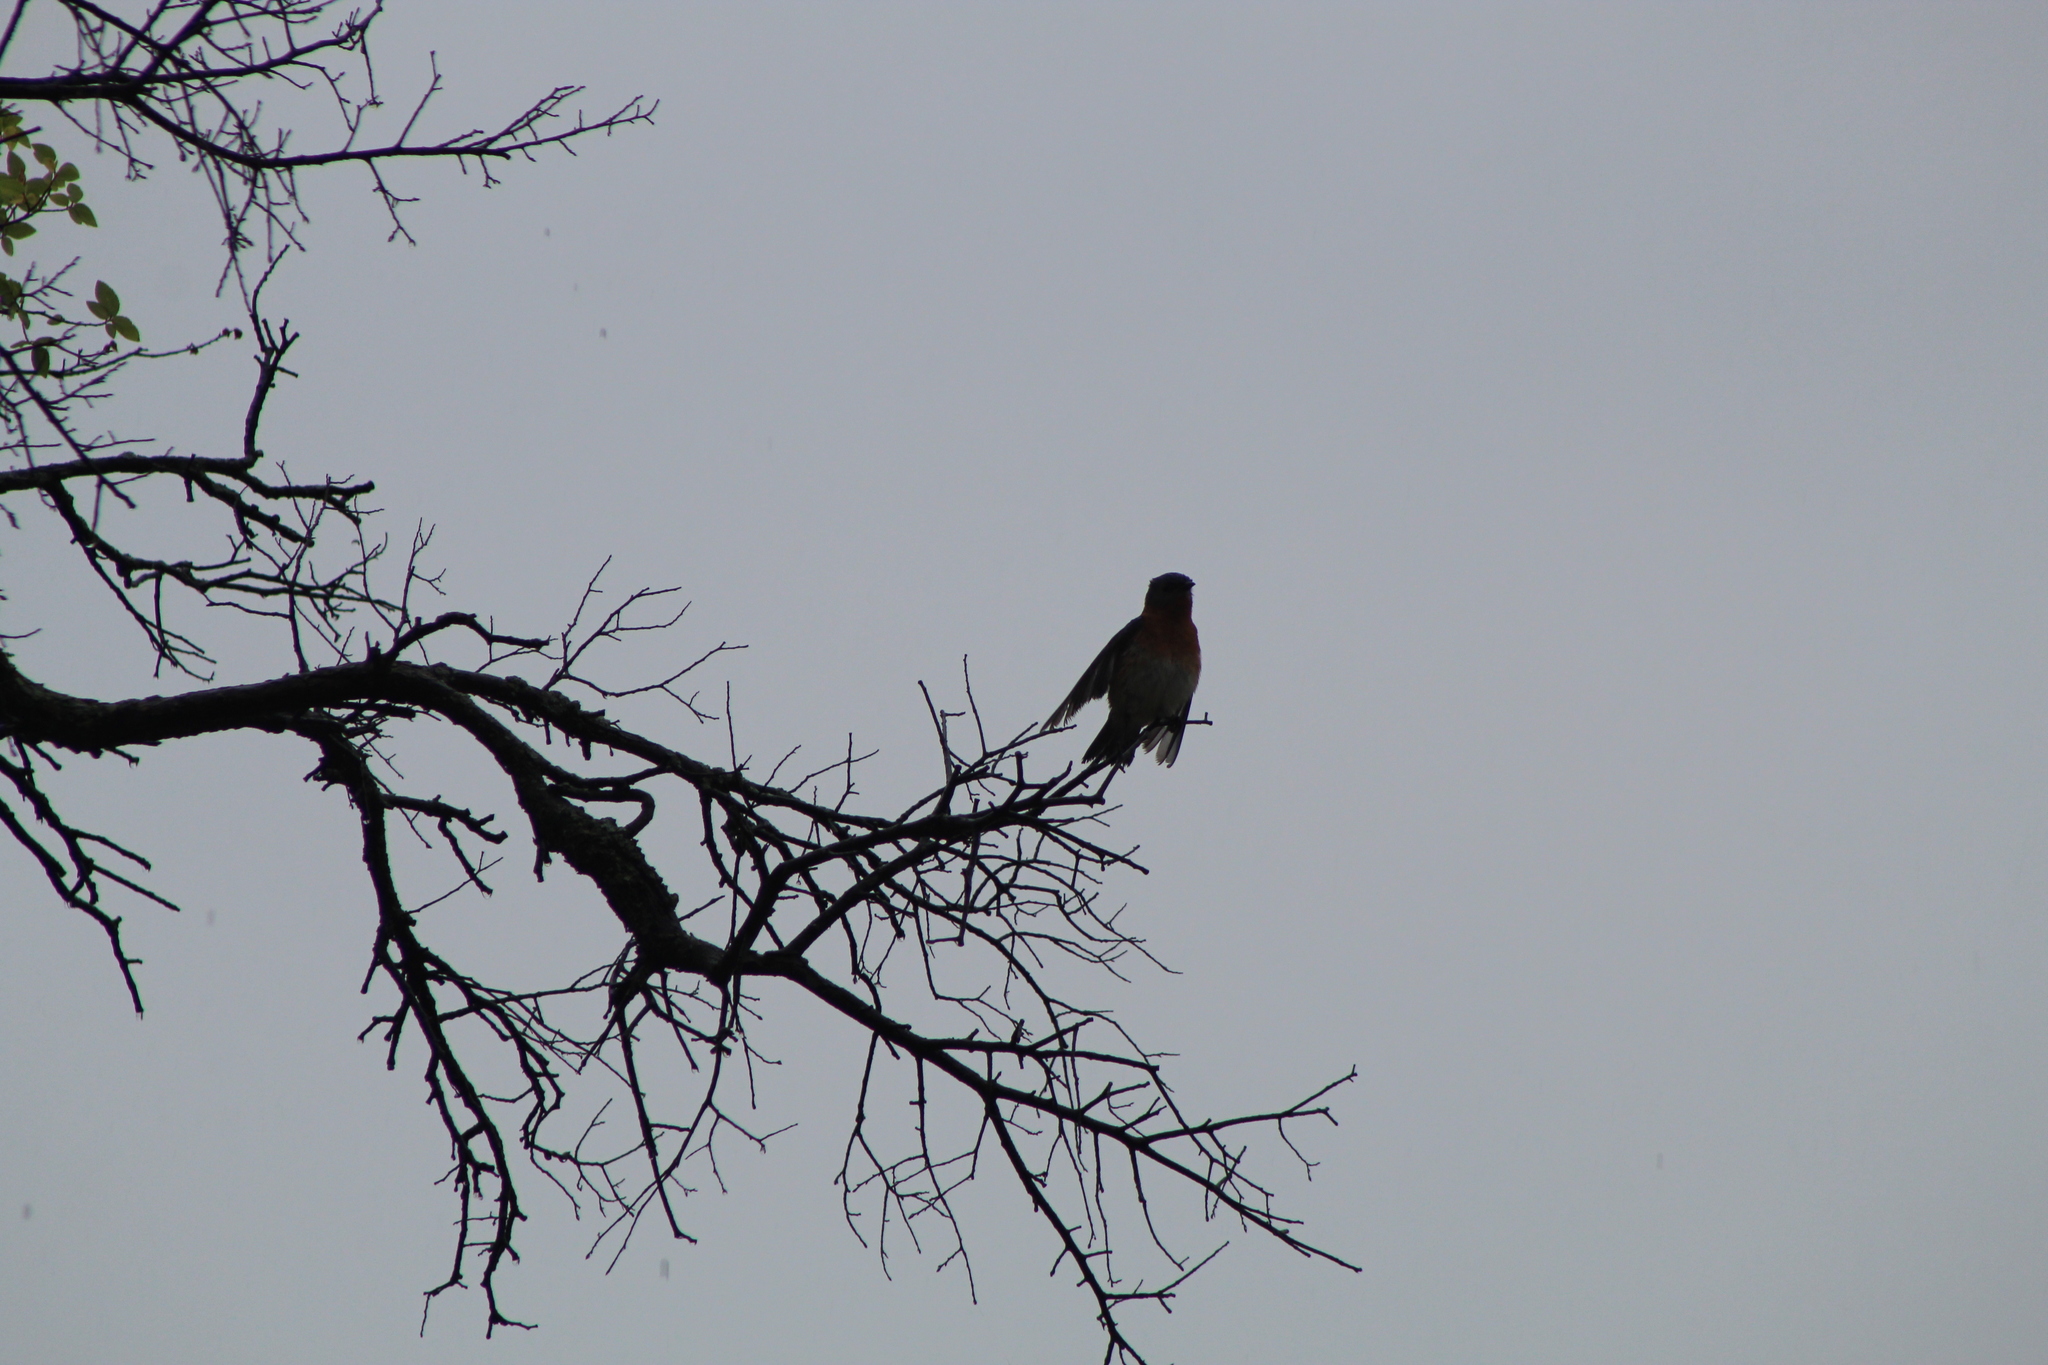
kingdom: Animalia
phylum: Chordata
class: Aves
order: Passeriformes
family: Turdidae
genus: Sialia
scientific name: Sialia sialis
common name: Eastern bluebird
